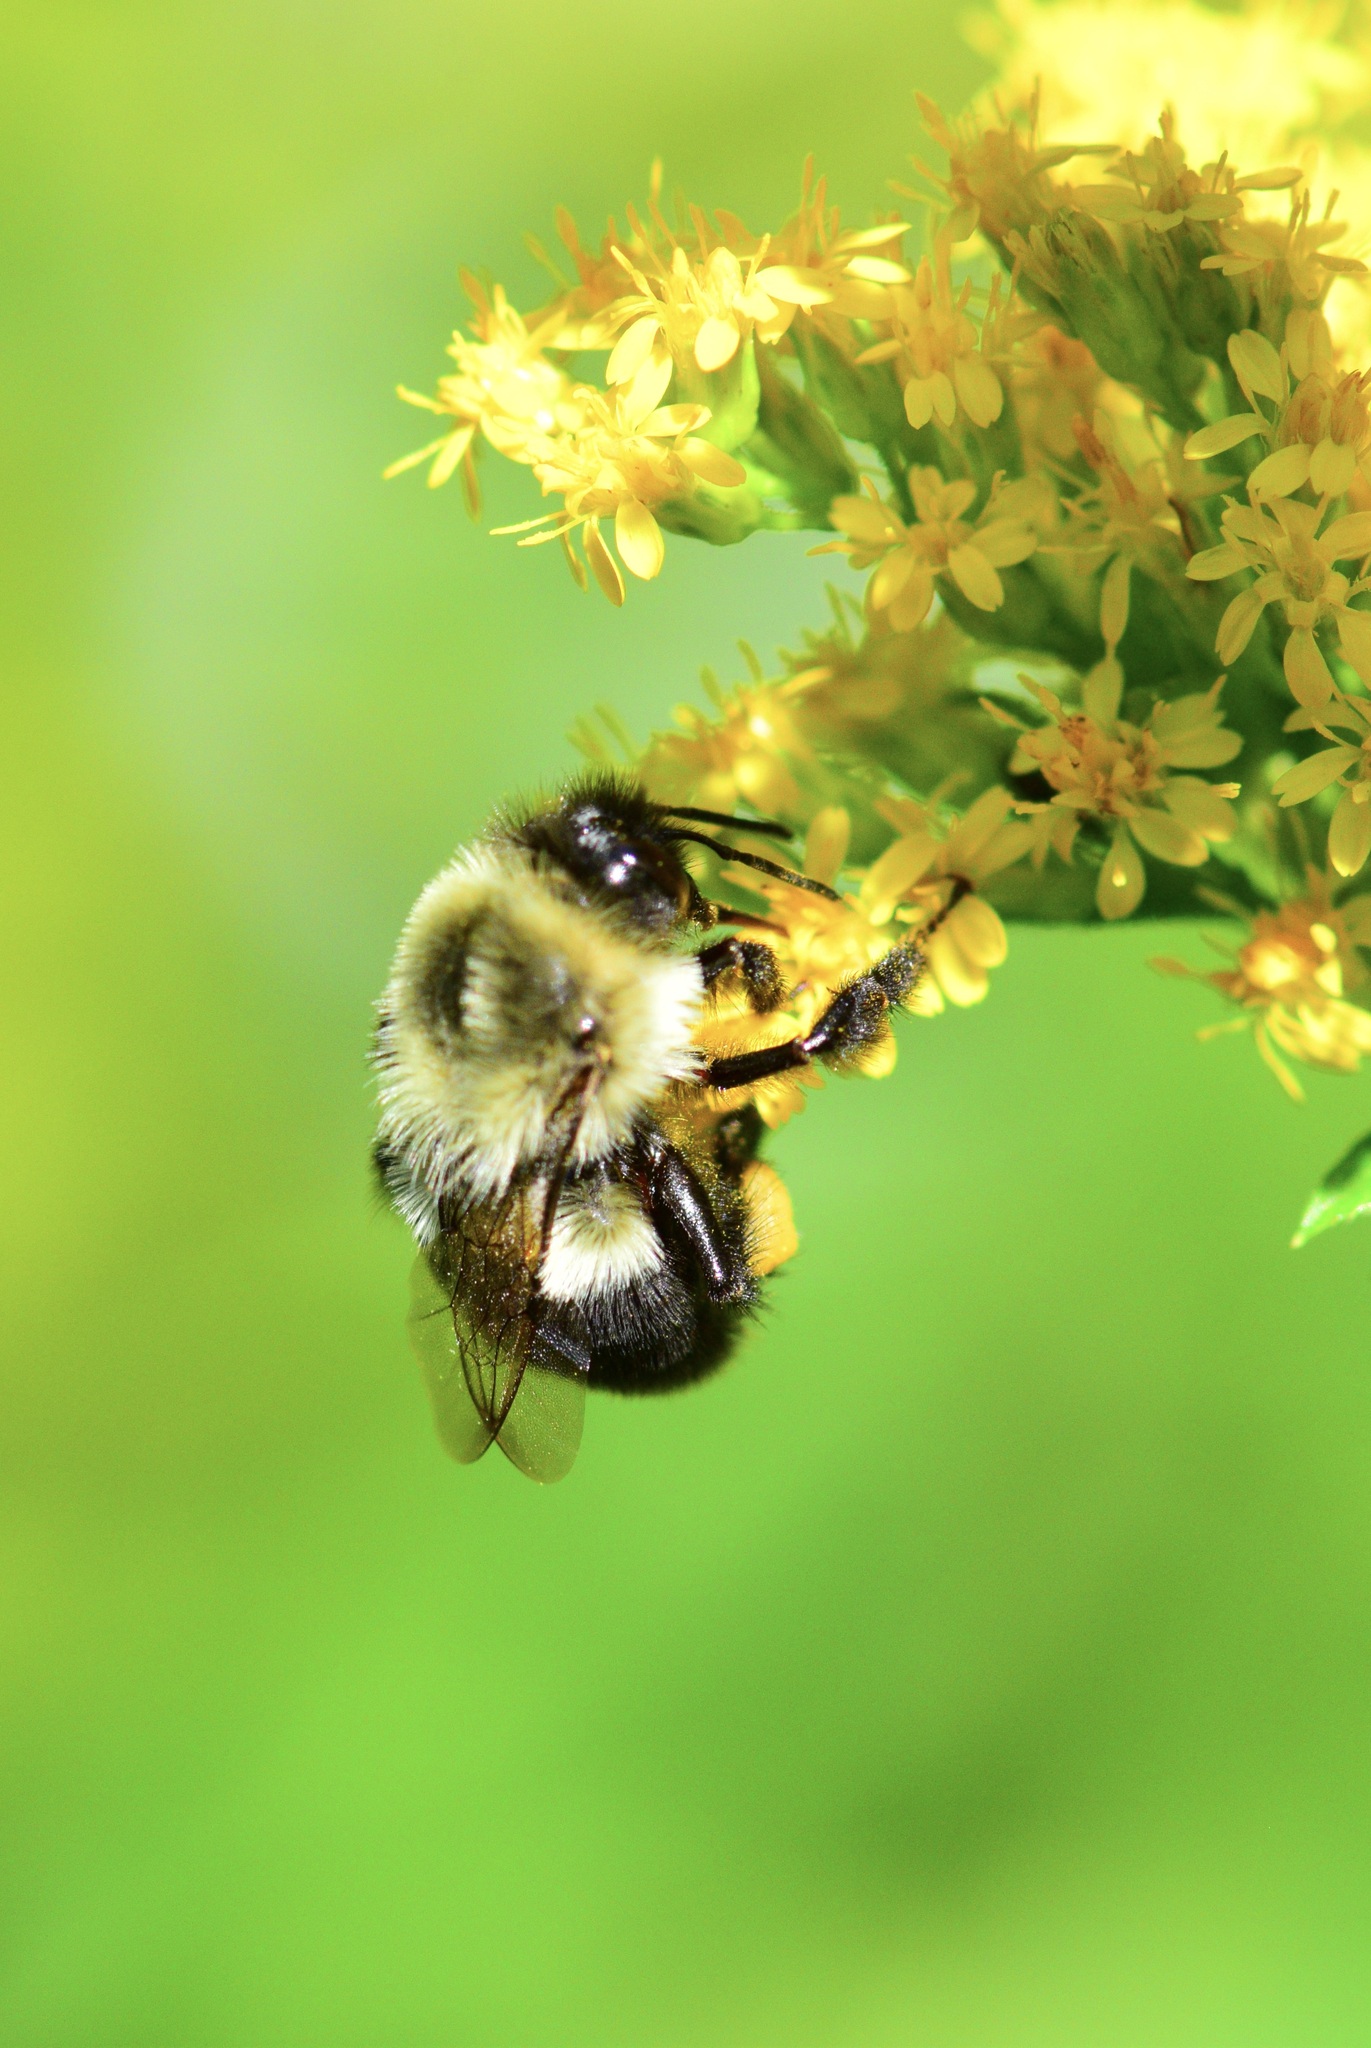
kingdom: Animalia
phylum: Arthropoda
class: Insecta
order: Hymenoptera
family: Apidae
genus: Bombus
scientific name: Bombus impatiens
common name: Common eastern bumble bee
